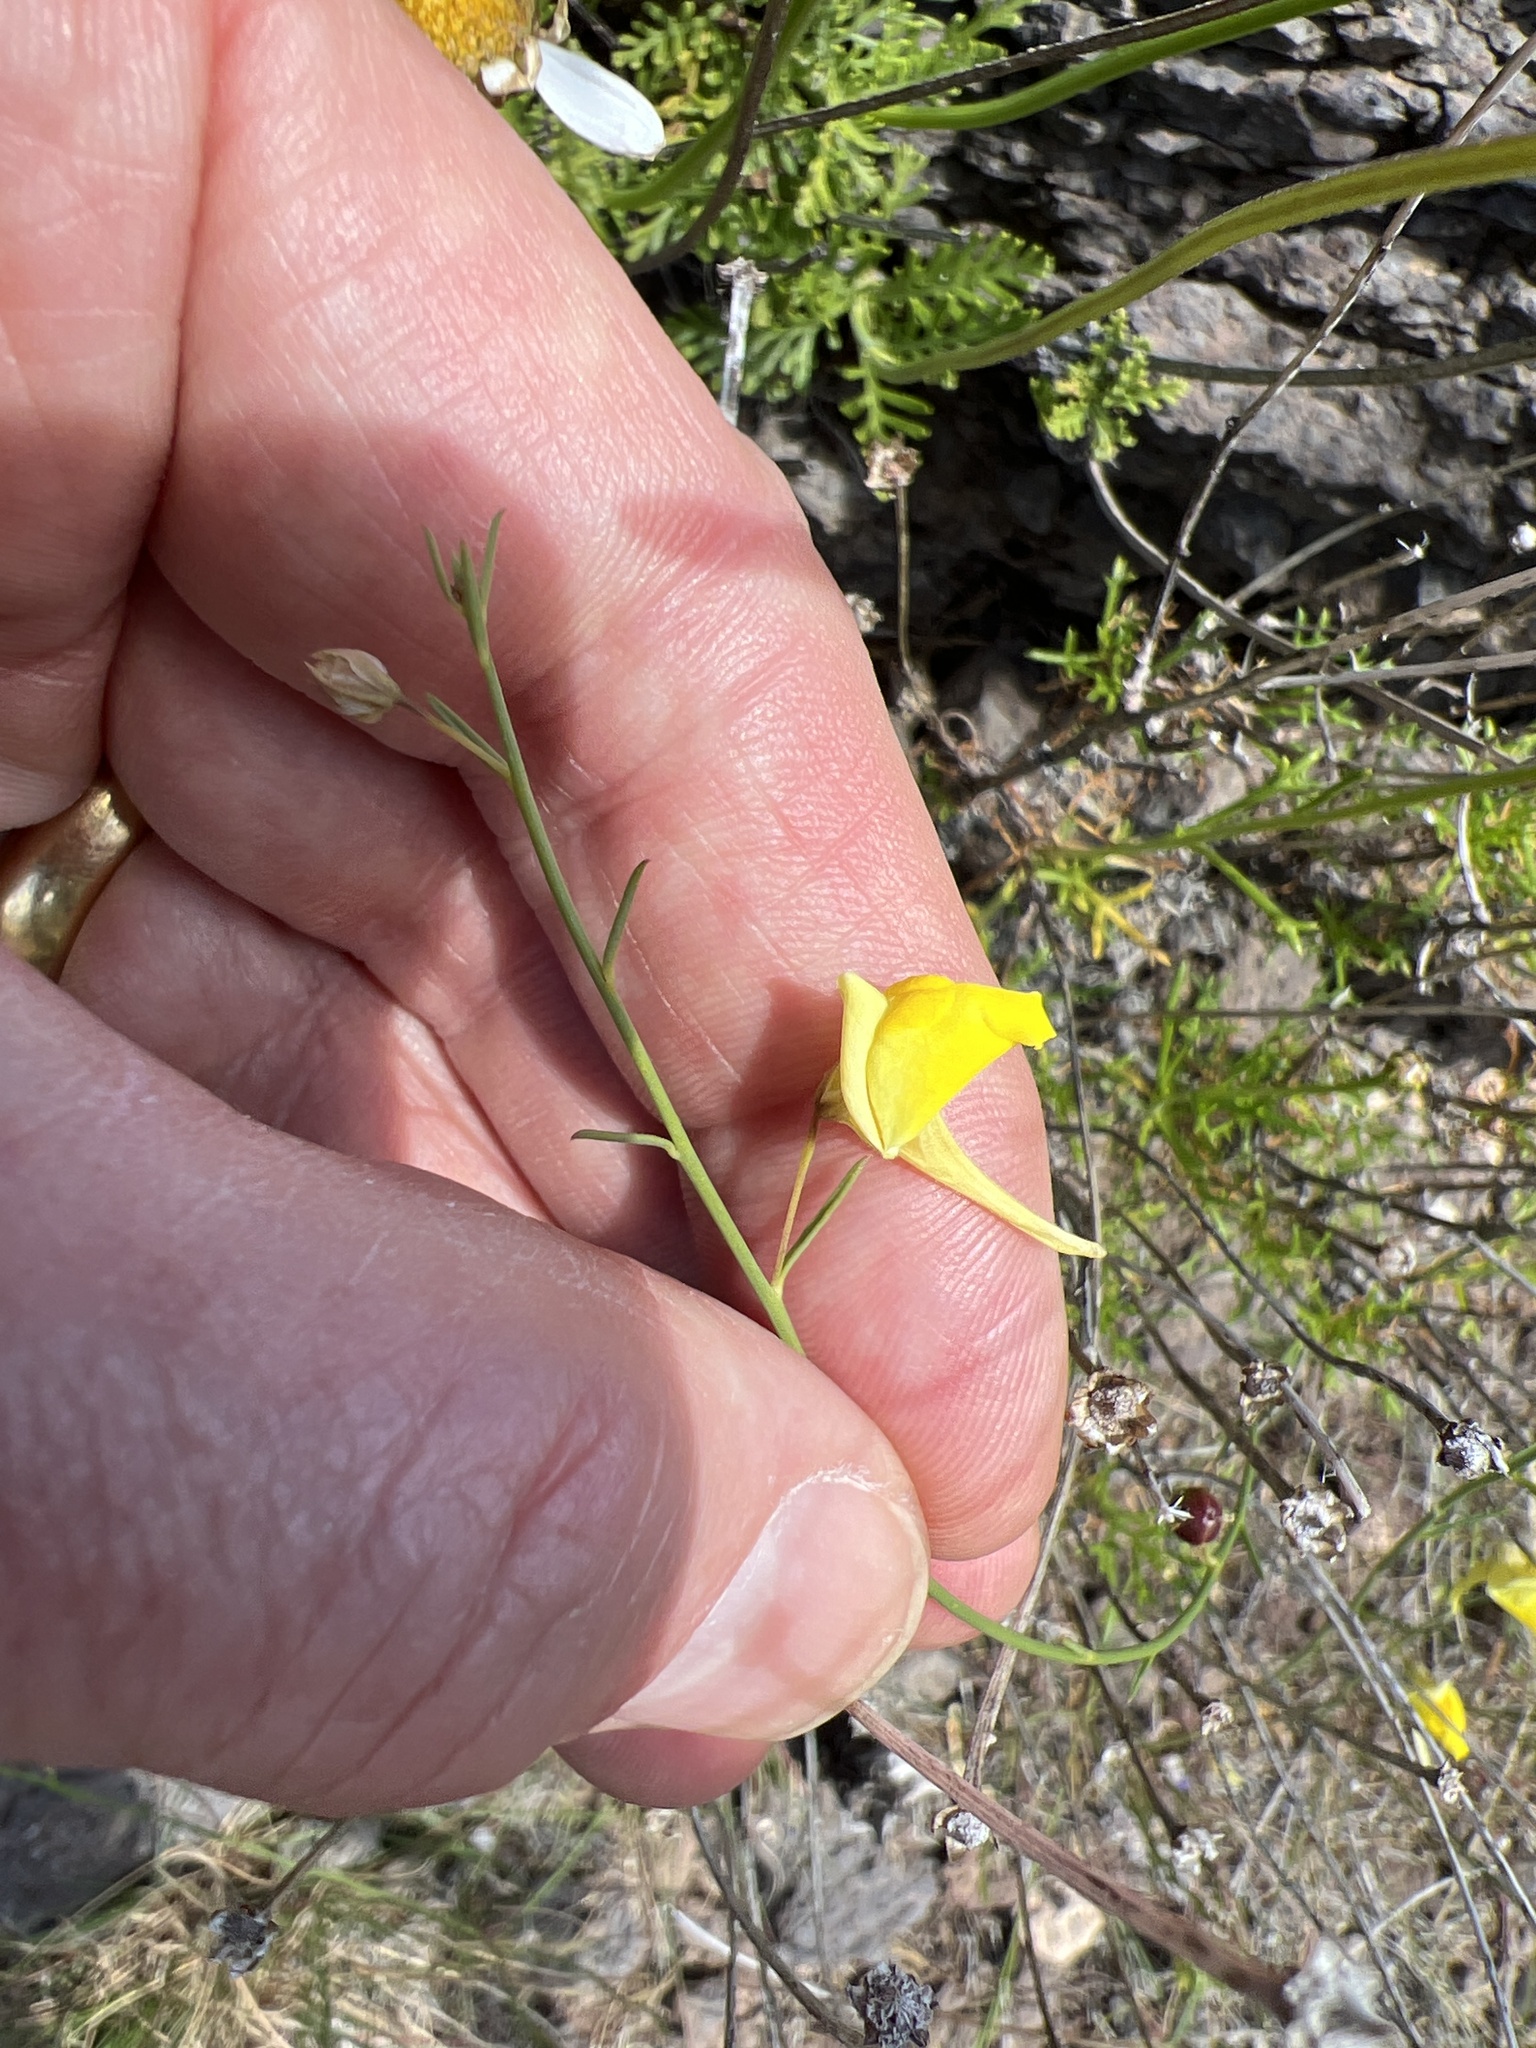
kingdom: Plantae
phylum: Tracheophyta
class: Magnoliopsida
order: Lamiales
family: Plantaginaceae
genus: Nanorrhinum
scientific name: Nanorrhinum scoparium
